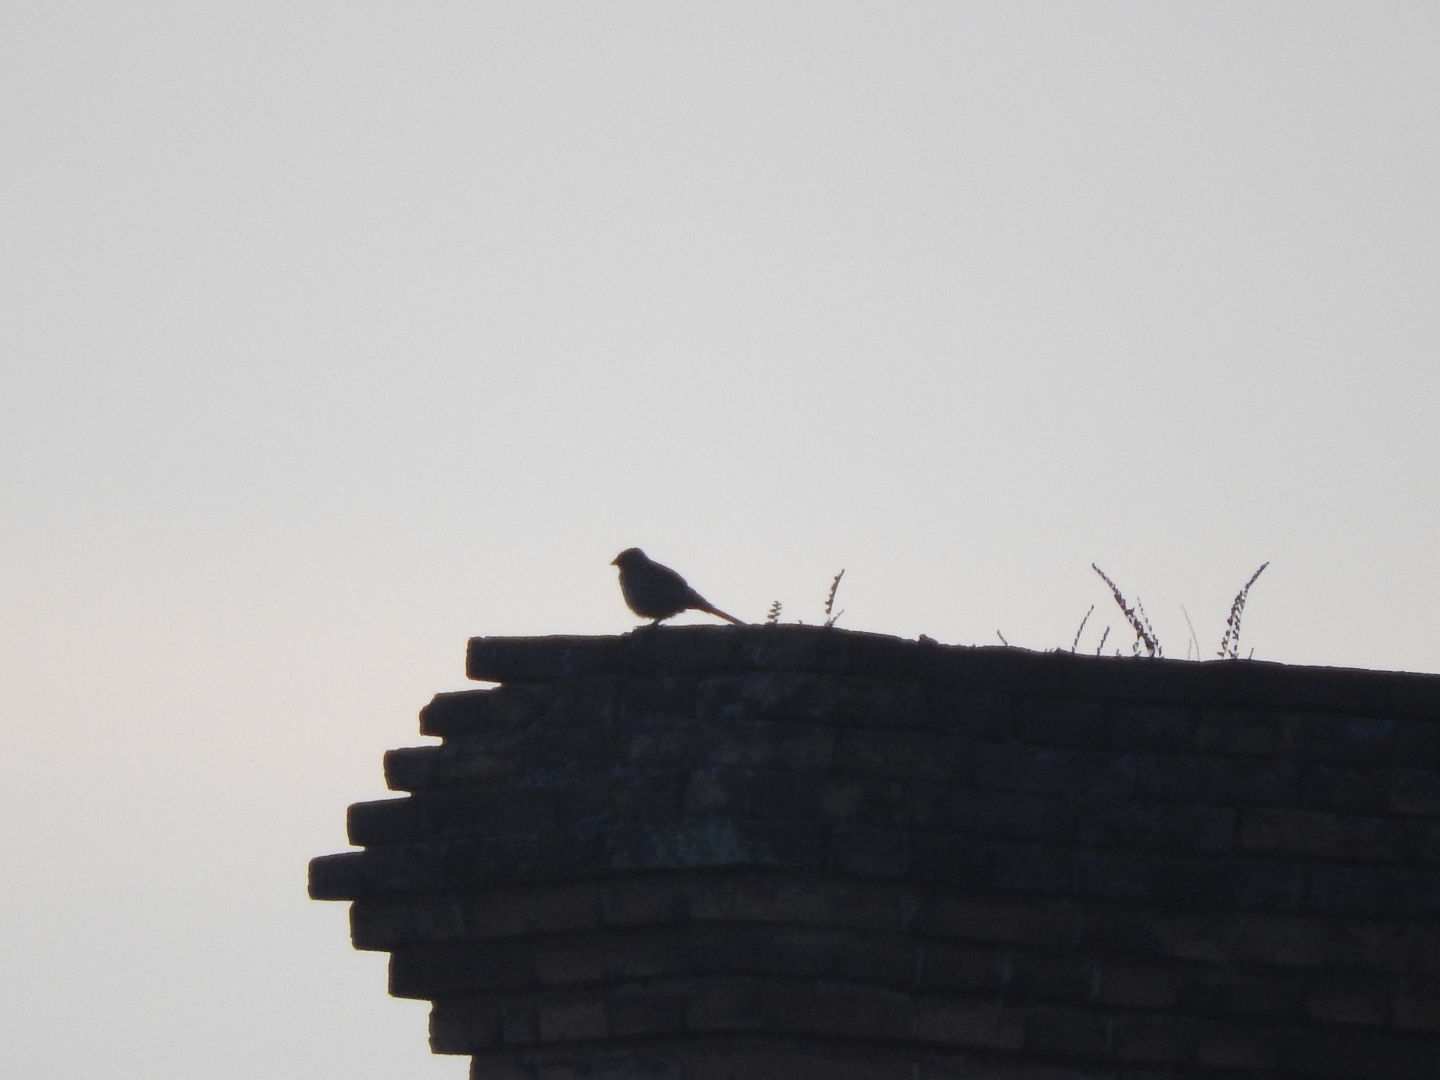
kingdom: Animalia
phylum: Chordata
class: Aves
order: Passeriformes
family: Passerellidae
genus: Melozone
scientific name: Melozone fusca
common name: Canyon towhee
